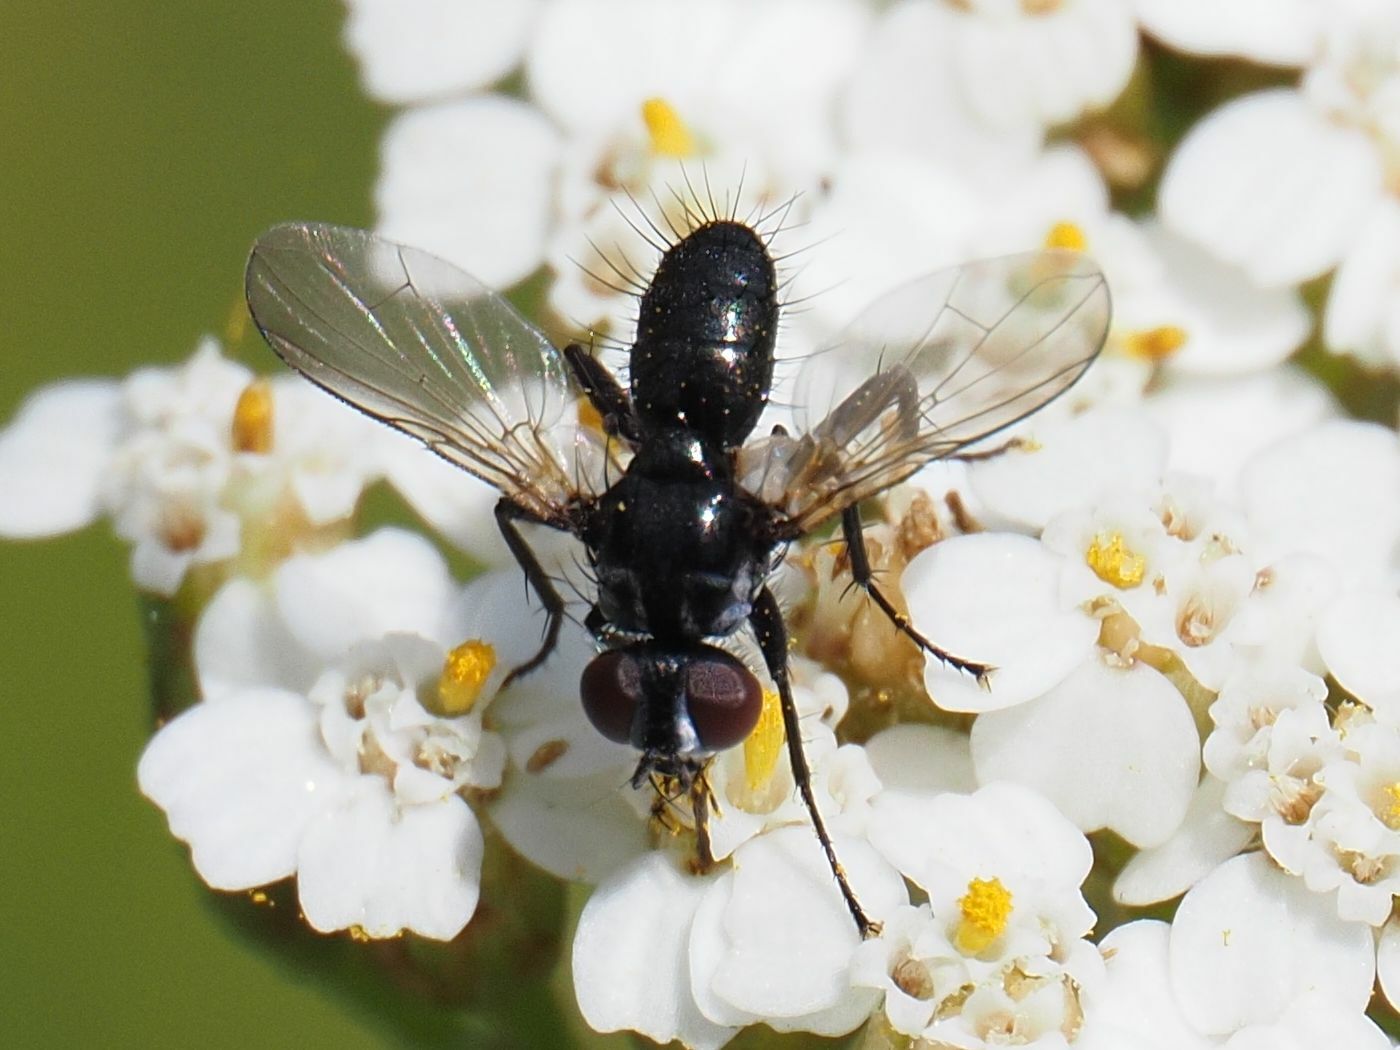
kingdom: Animalia
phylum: Arthropoda
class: Insecta
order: Diptera
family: Tachinidae
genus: Phania
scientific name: Phania funesta
